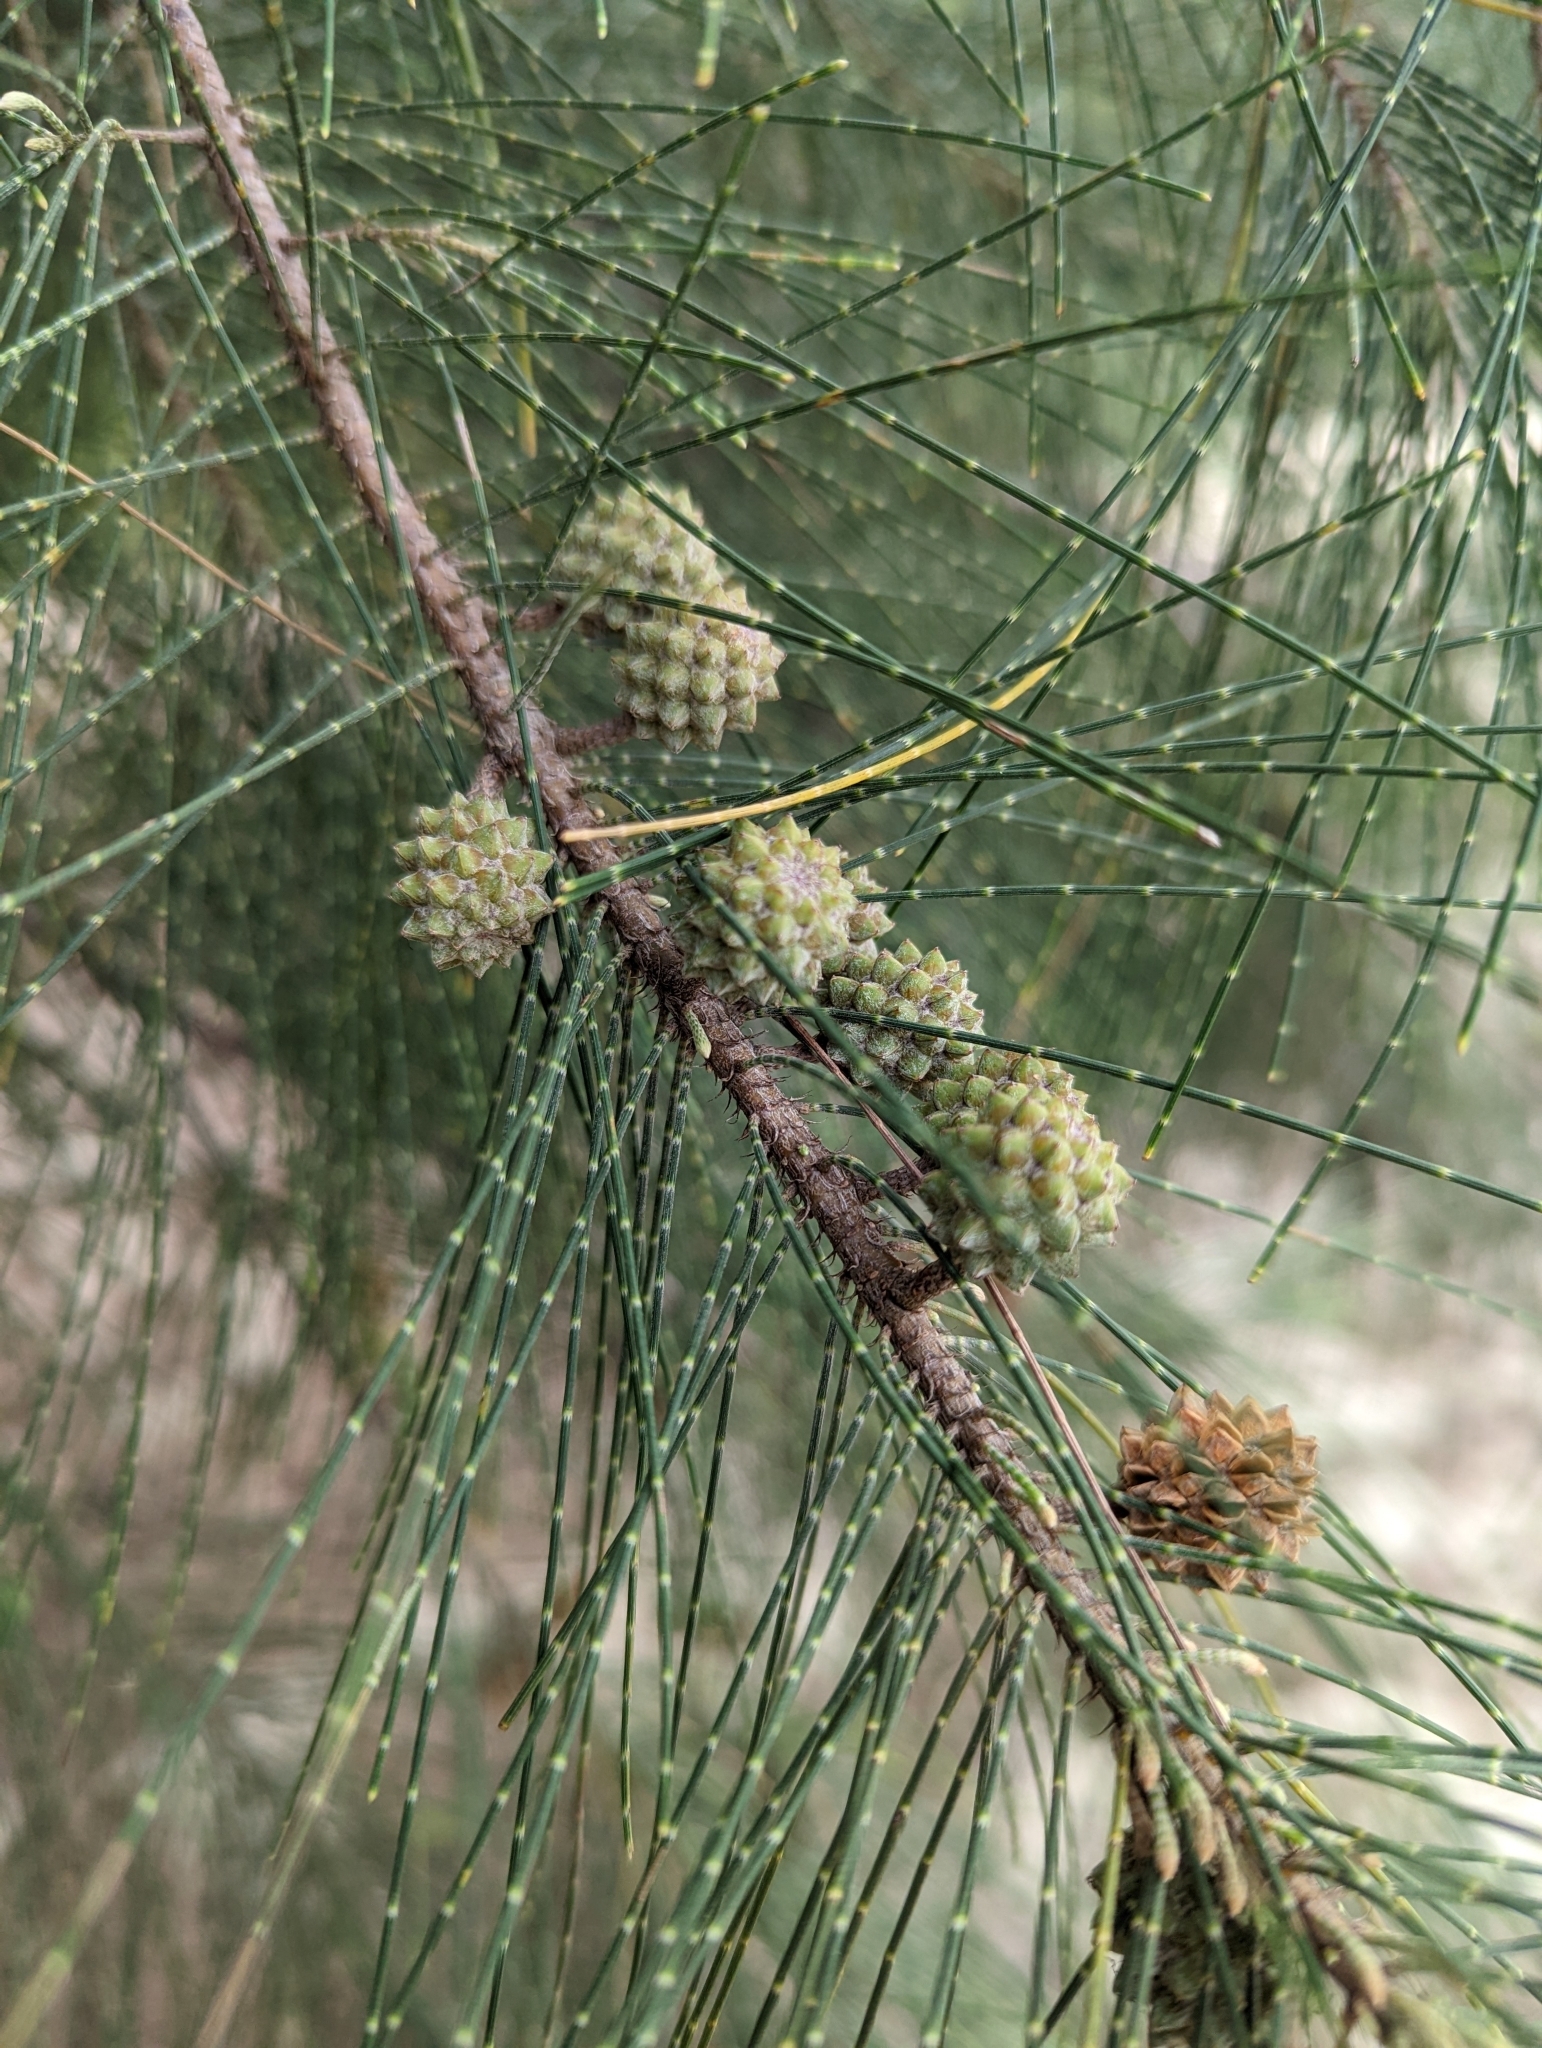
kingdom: Plantae
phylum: Tracheophyta
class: Magnoliopsida
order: Fagales
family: Casuarinaceae
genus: Casuarina
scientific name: Casuarina equisetifolia
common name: Beach sheoak
